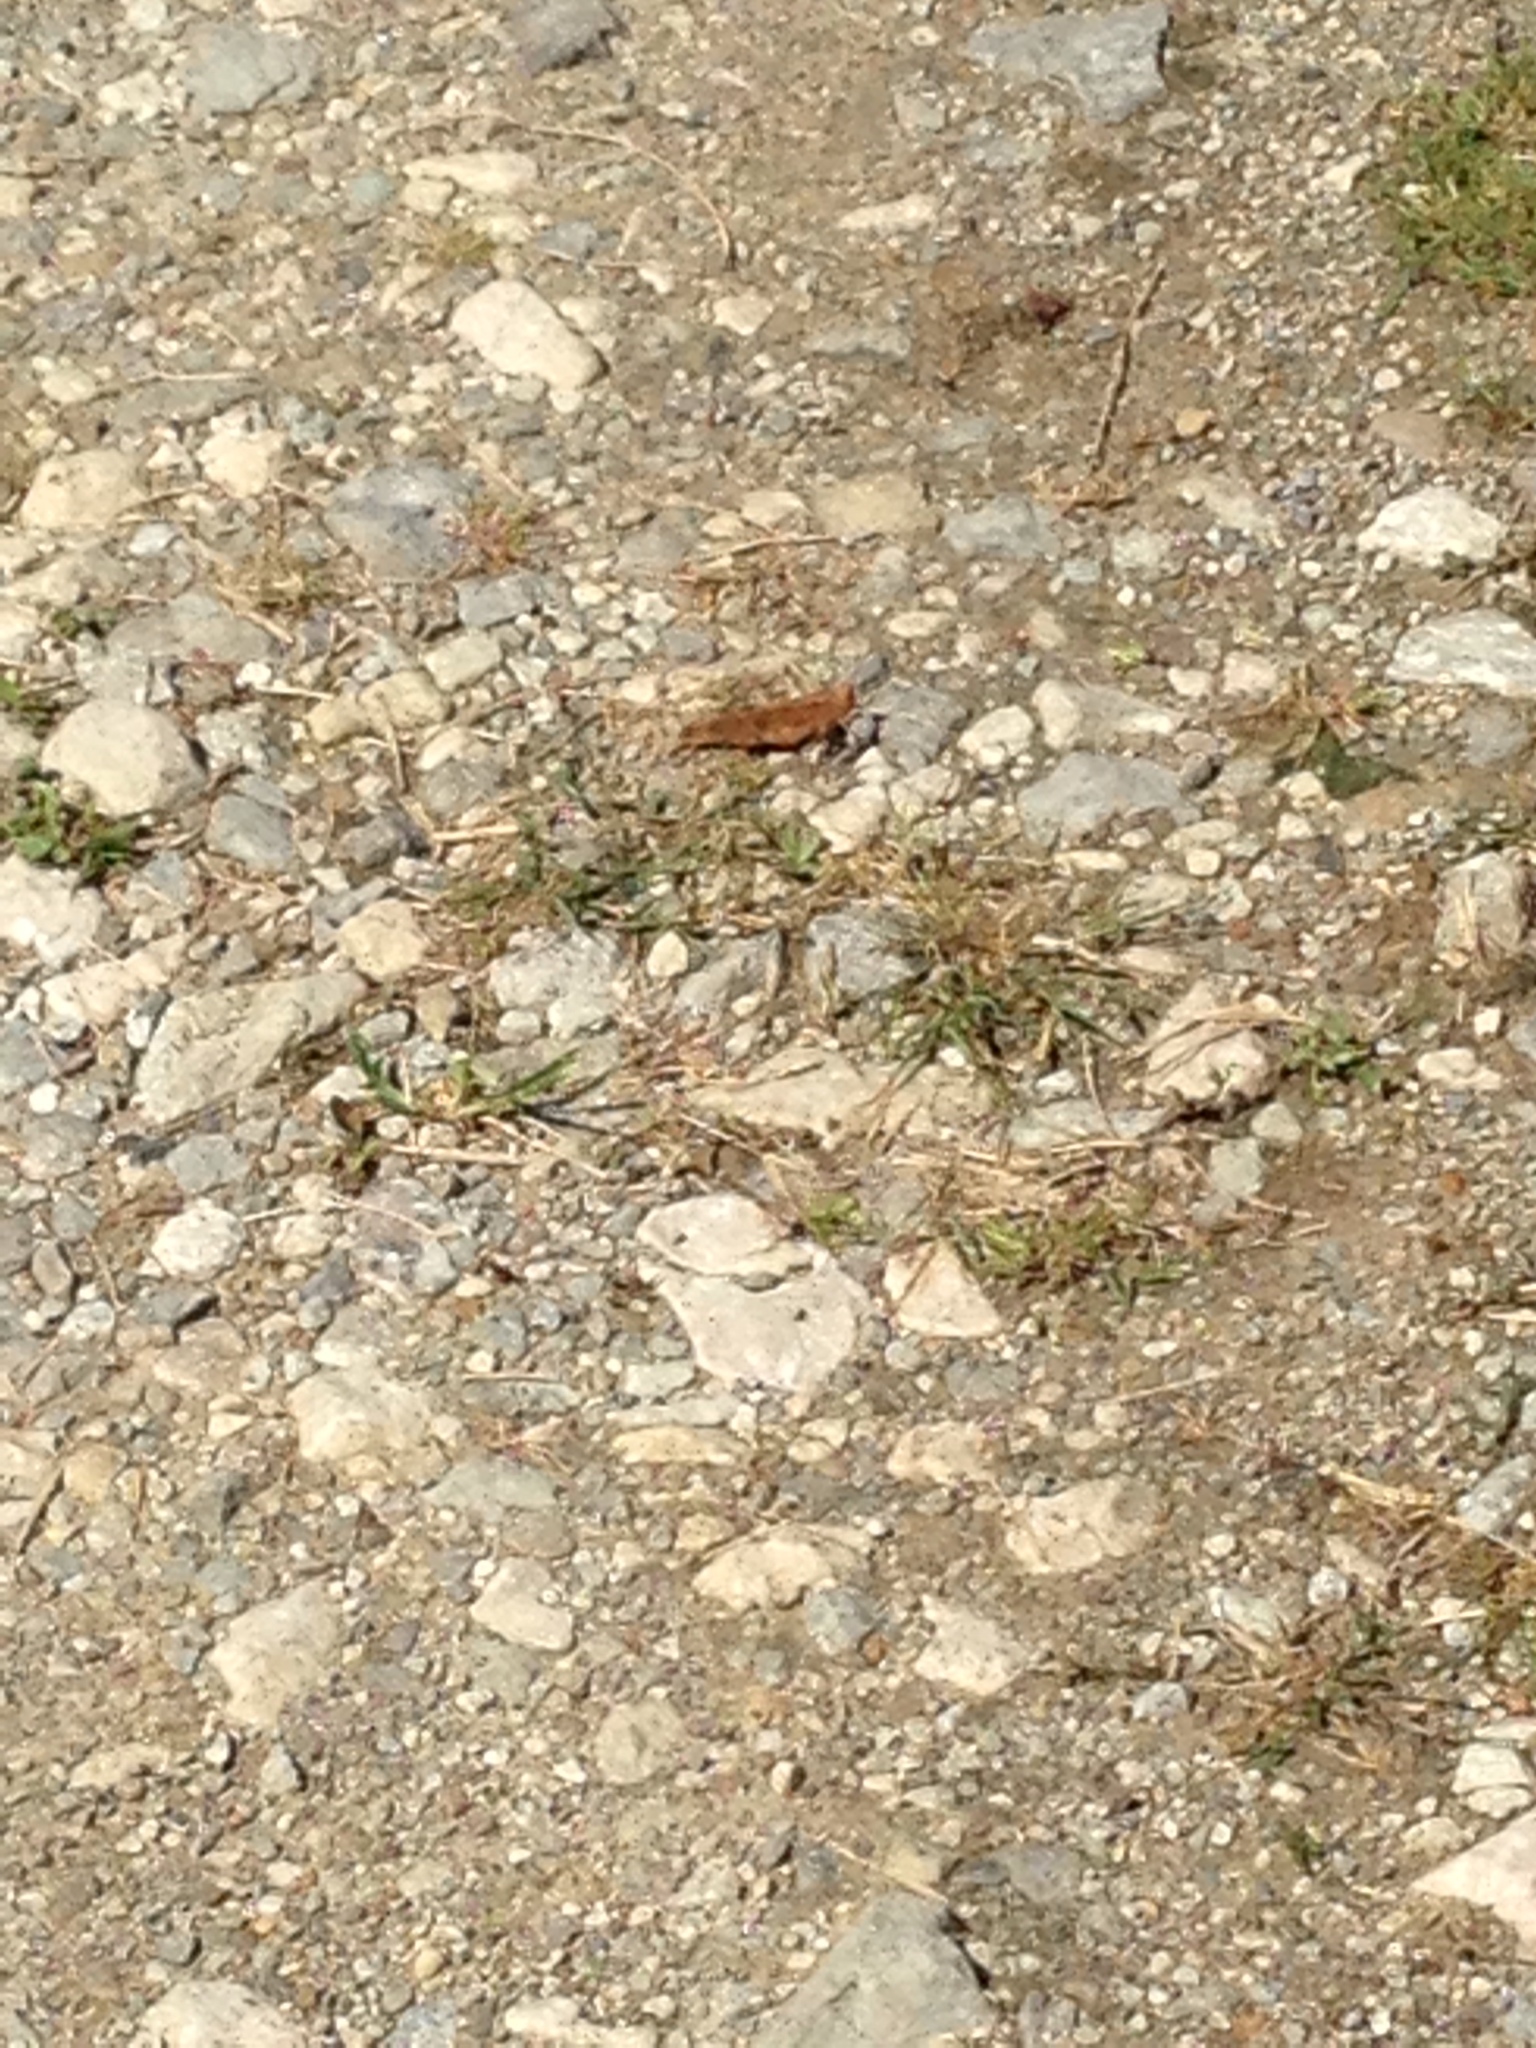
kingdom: Animalia
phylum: Arthropoda
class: Insecta
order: Orthoptera
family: Acrididae
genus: Dissosteira
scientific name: Dissosteira carolina
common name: Carolina grasshopper
